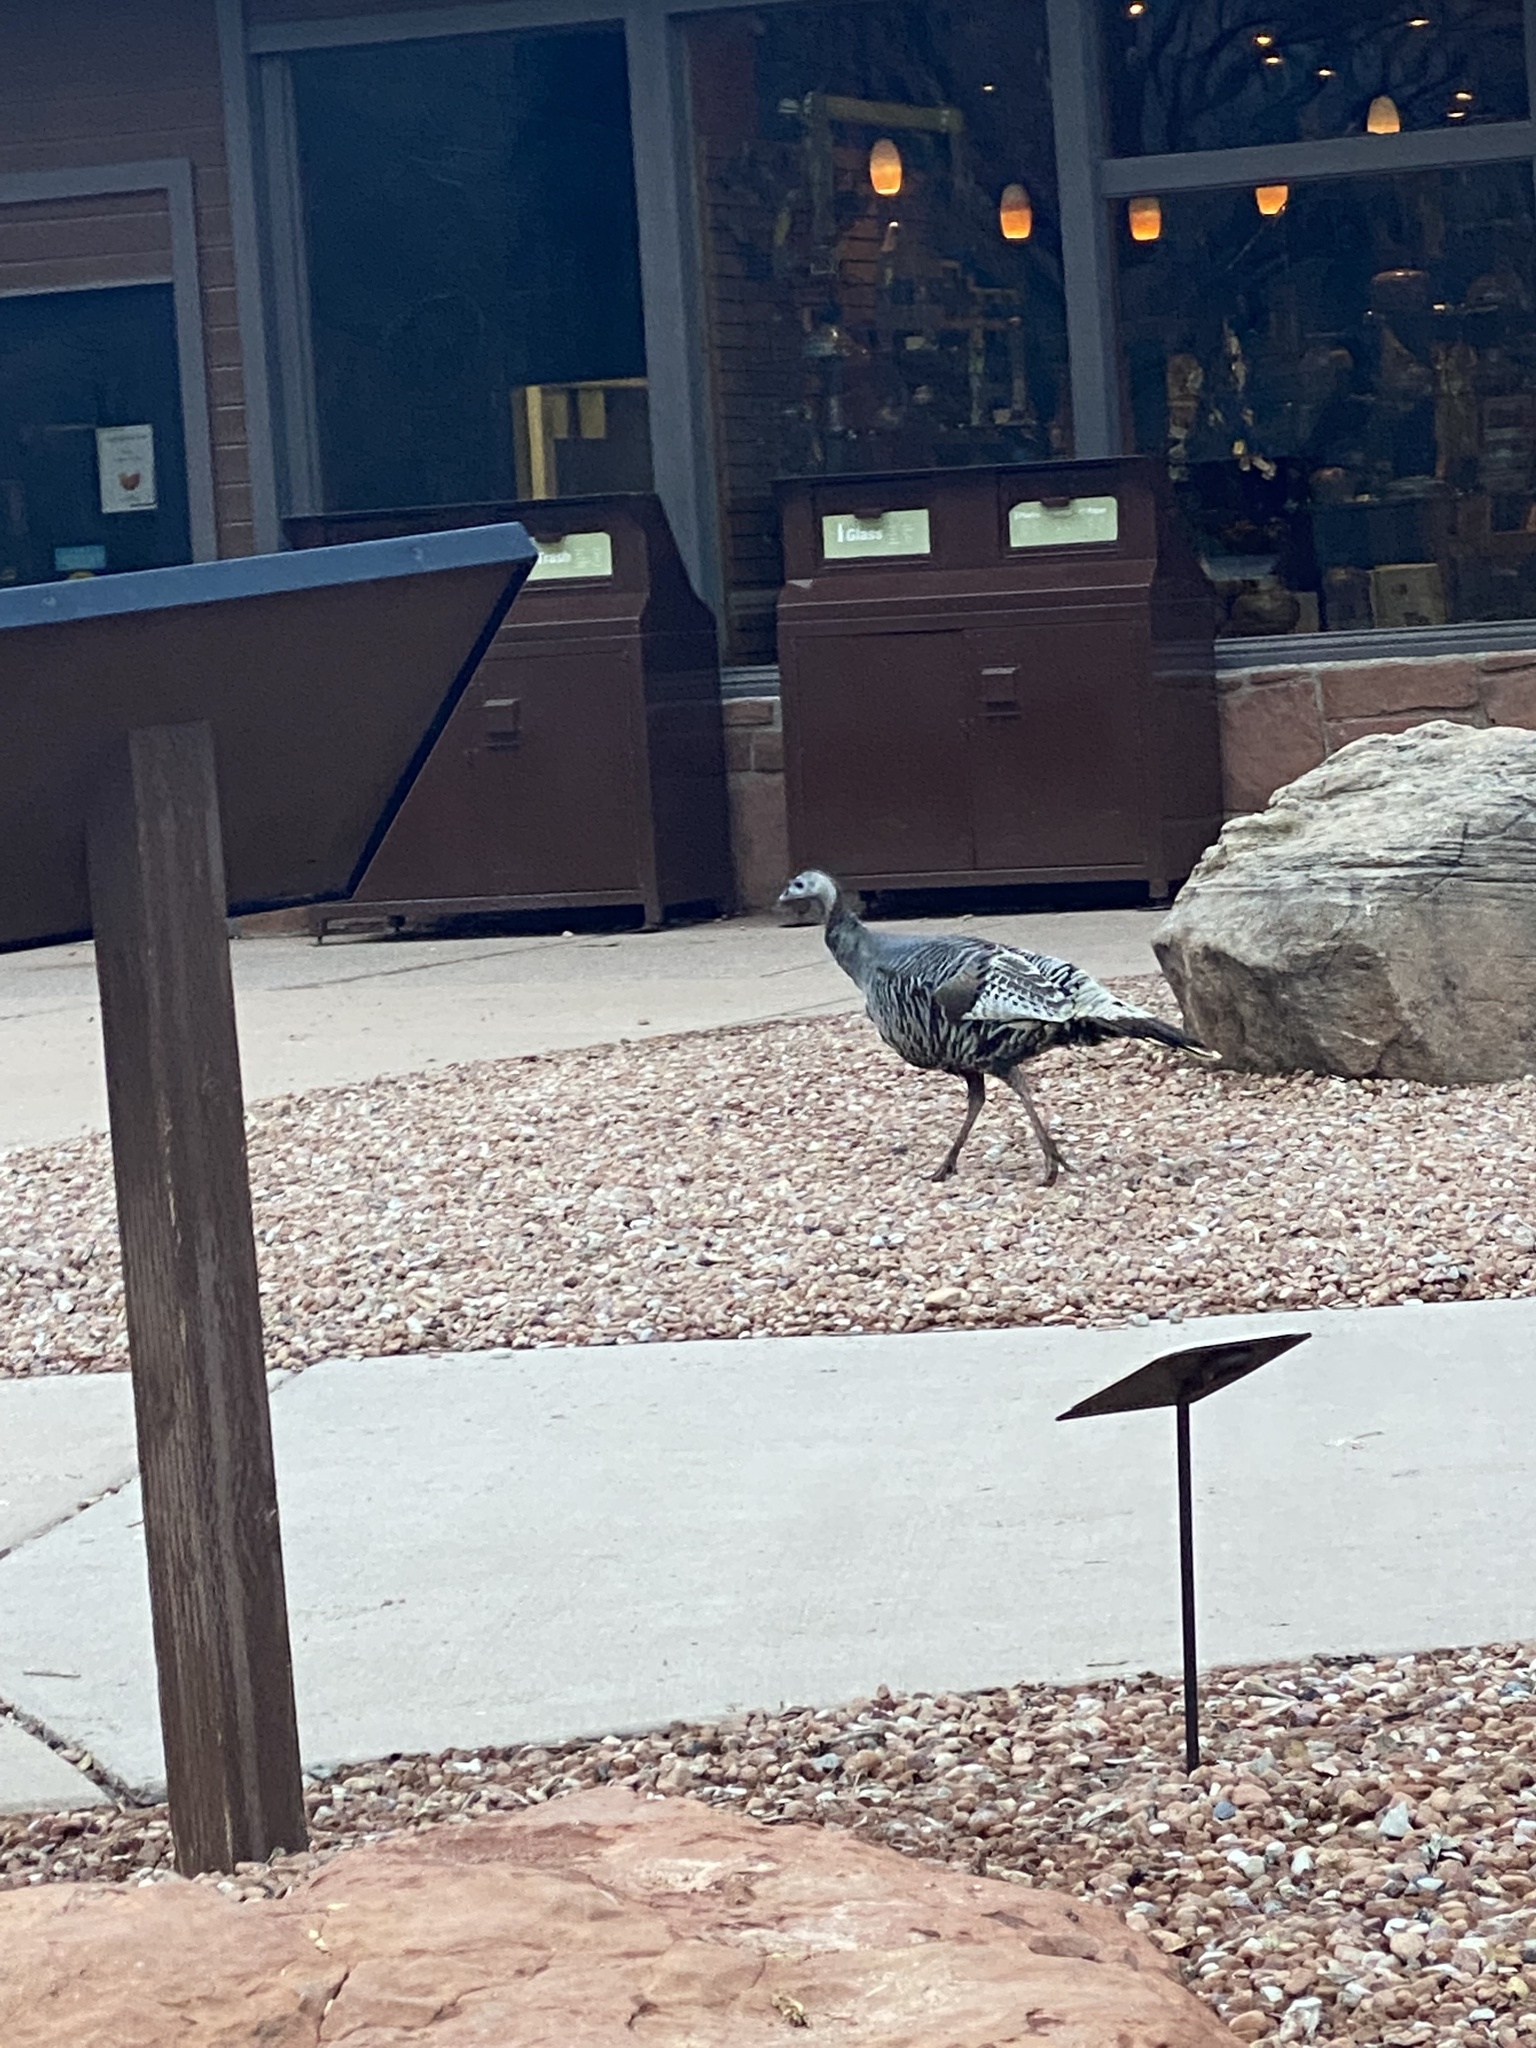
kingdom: Animalia
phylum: Chordata
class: Aves
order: Galliformes
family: Phasianidae
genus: Meleagris
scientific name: Meleagris gallopavo
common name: Wild turkey
